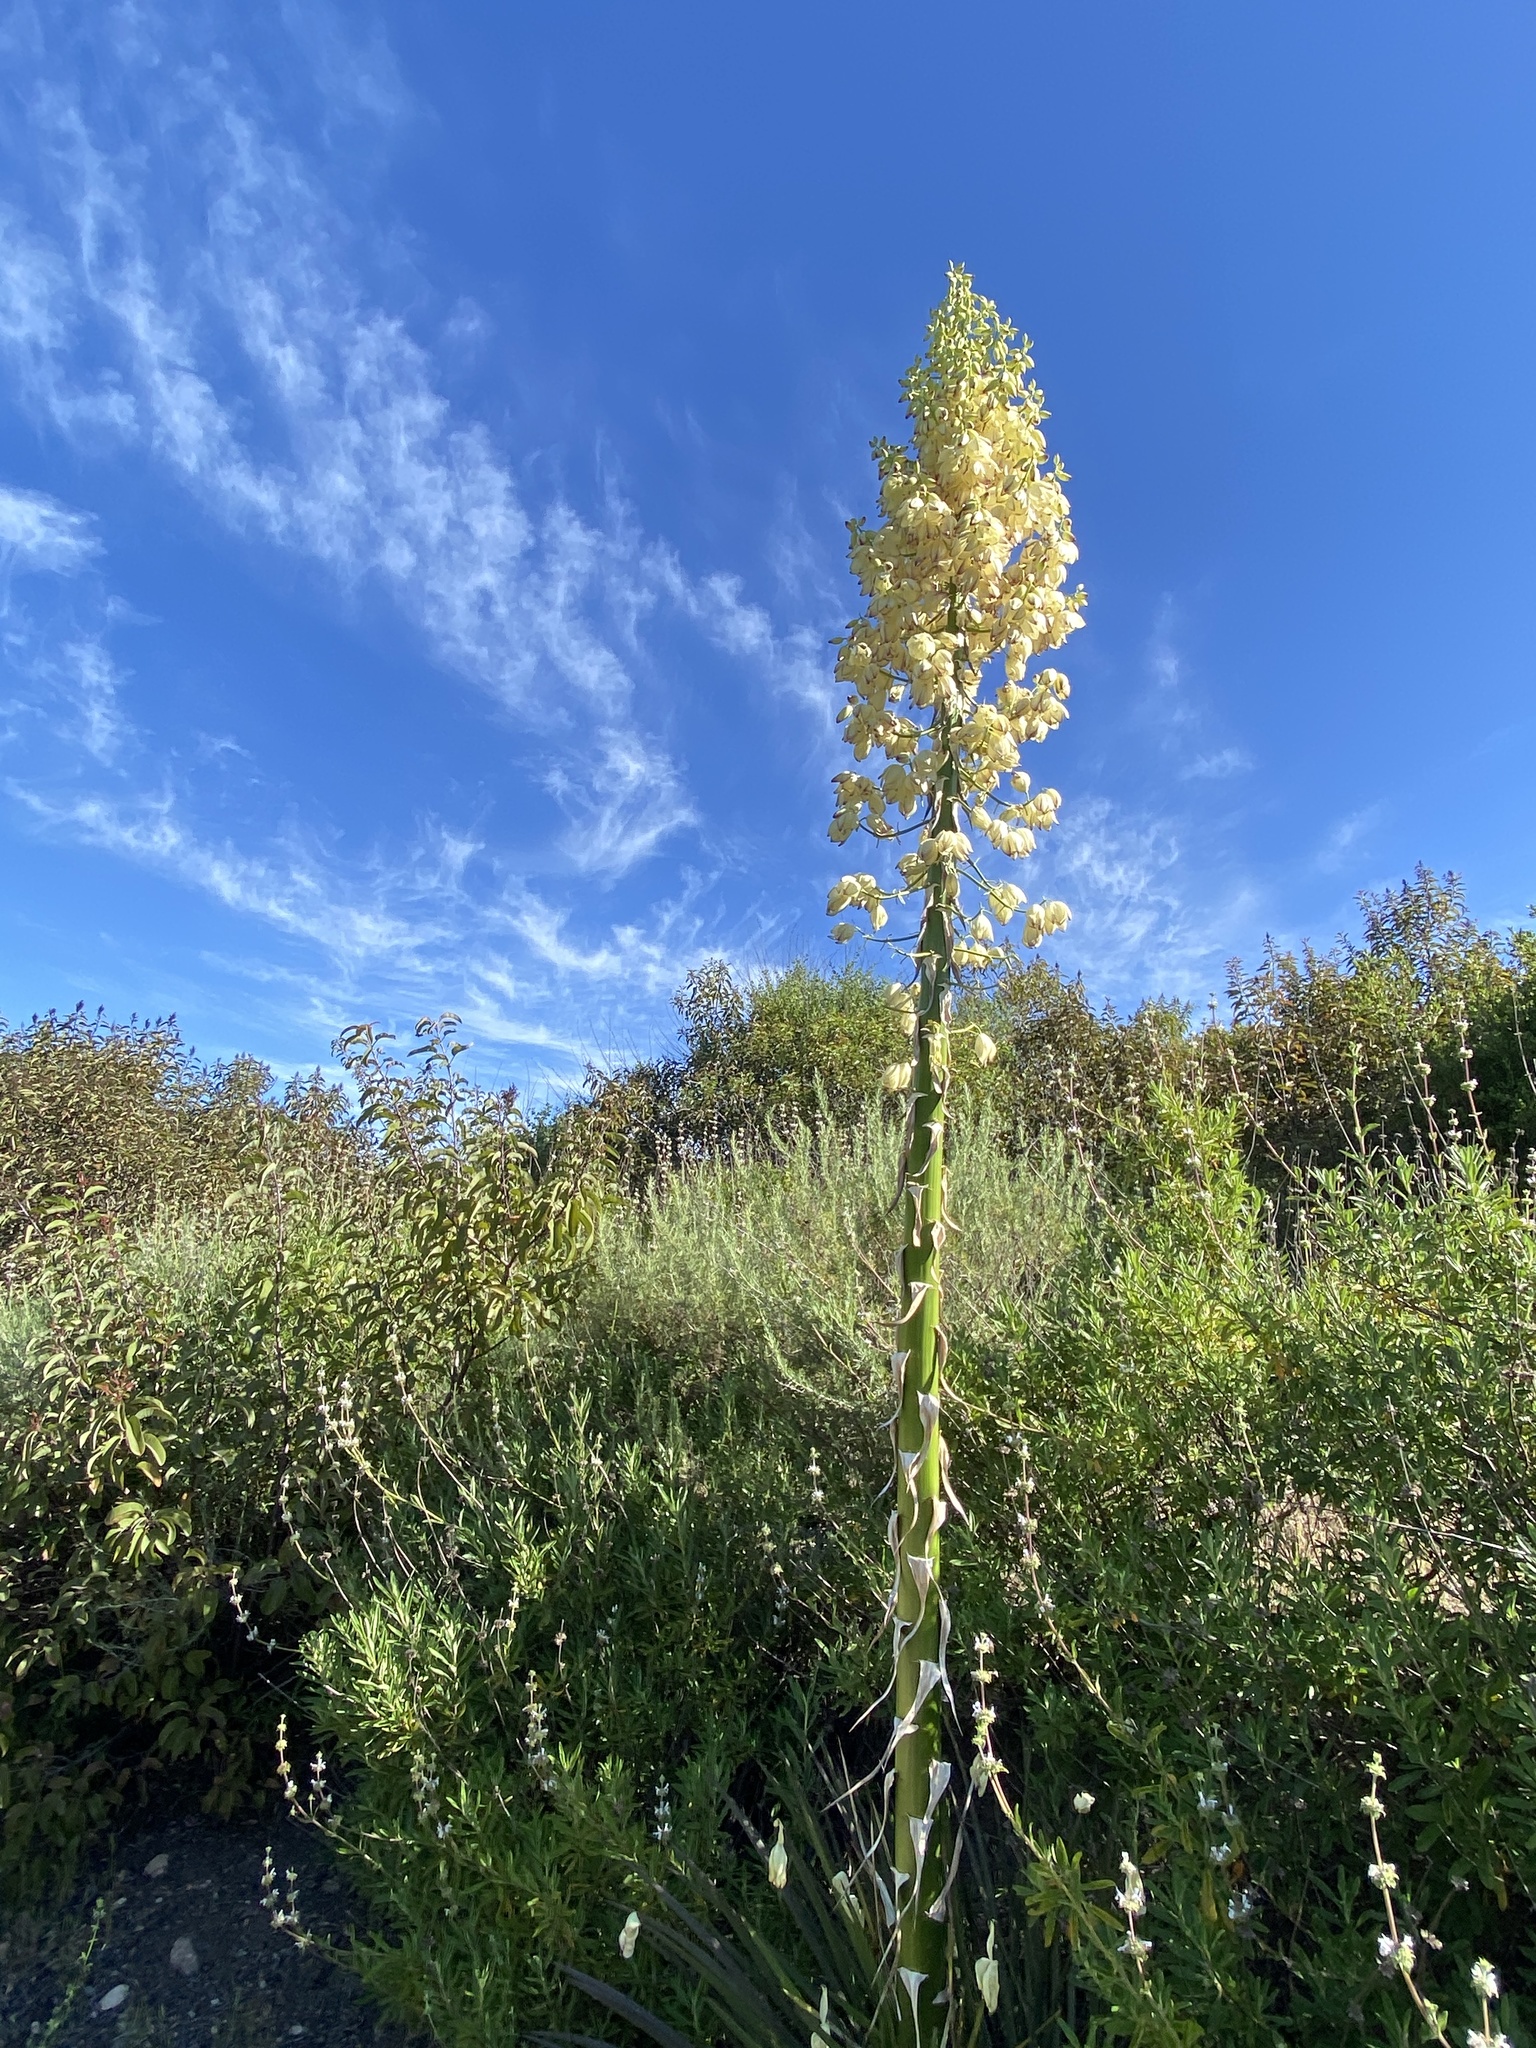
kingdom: Plantae
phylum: Tracheophyta
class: Liliopsida
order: Asparagales
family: Asparagaceae
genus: Hesperoyucca
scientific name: Hesperoyucca whipplei
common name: Our lord's-candle
